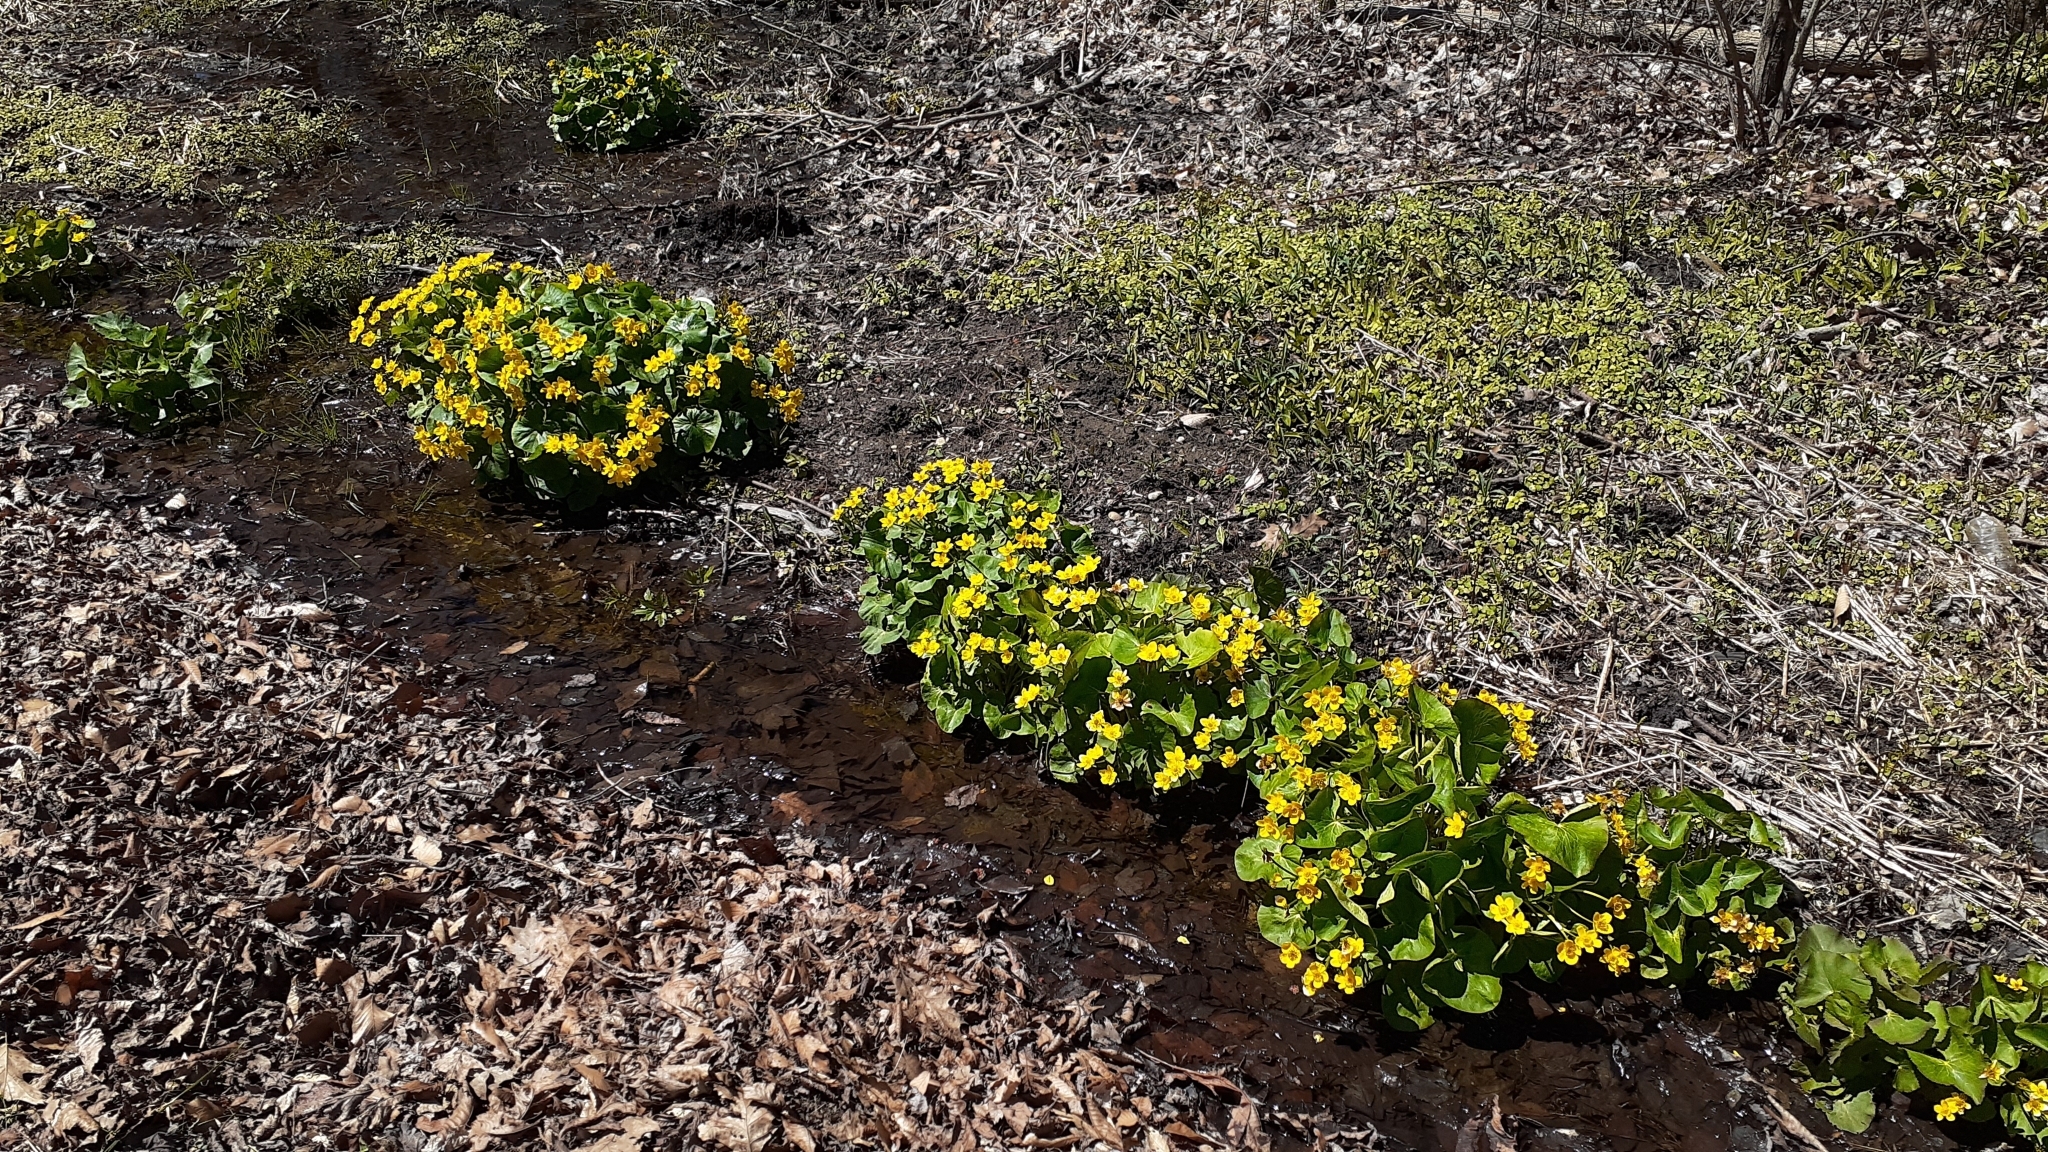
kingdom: Plantae
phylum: Tracheophyta
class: Magnoliopsida
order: Ranunculales
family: Ranunculaceae
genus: Caltha
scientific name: Caltha palustris
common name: Marsh marigold
